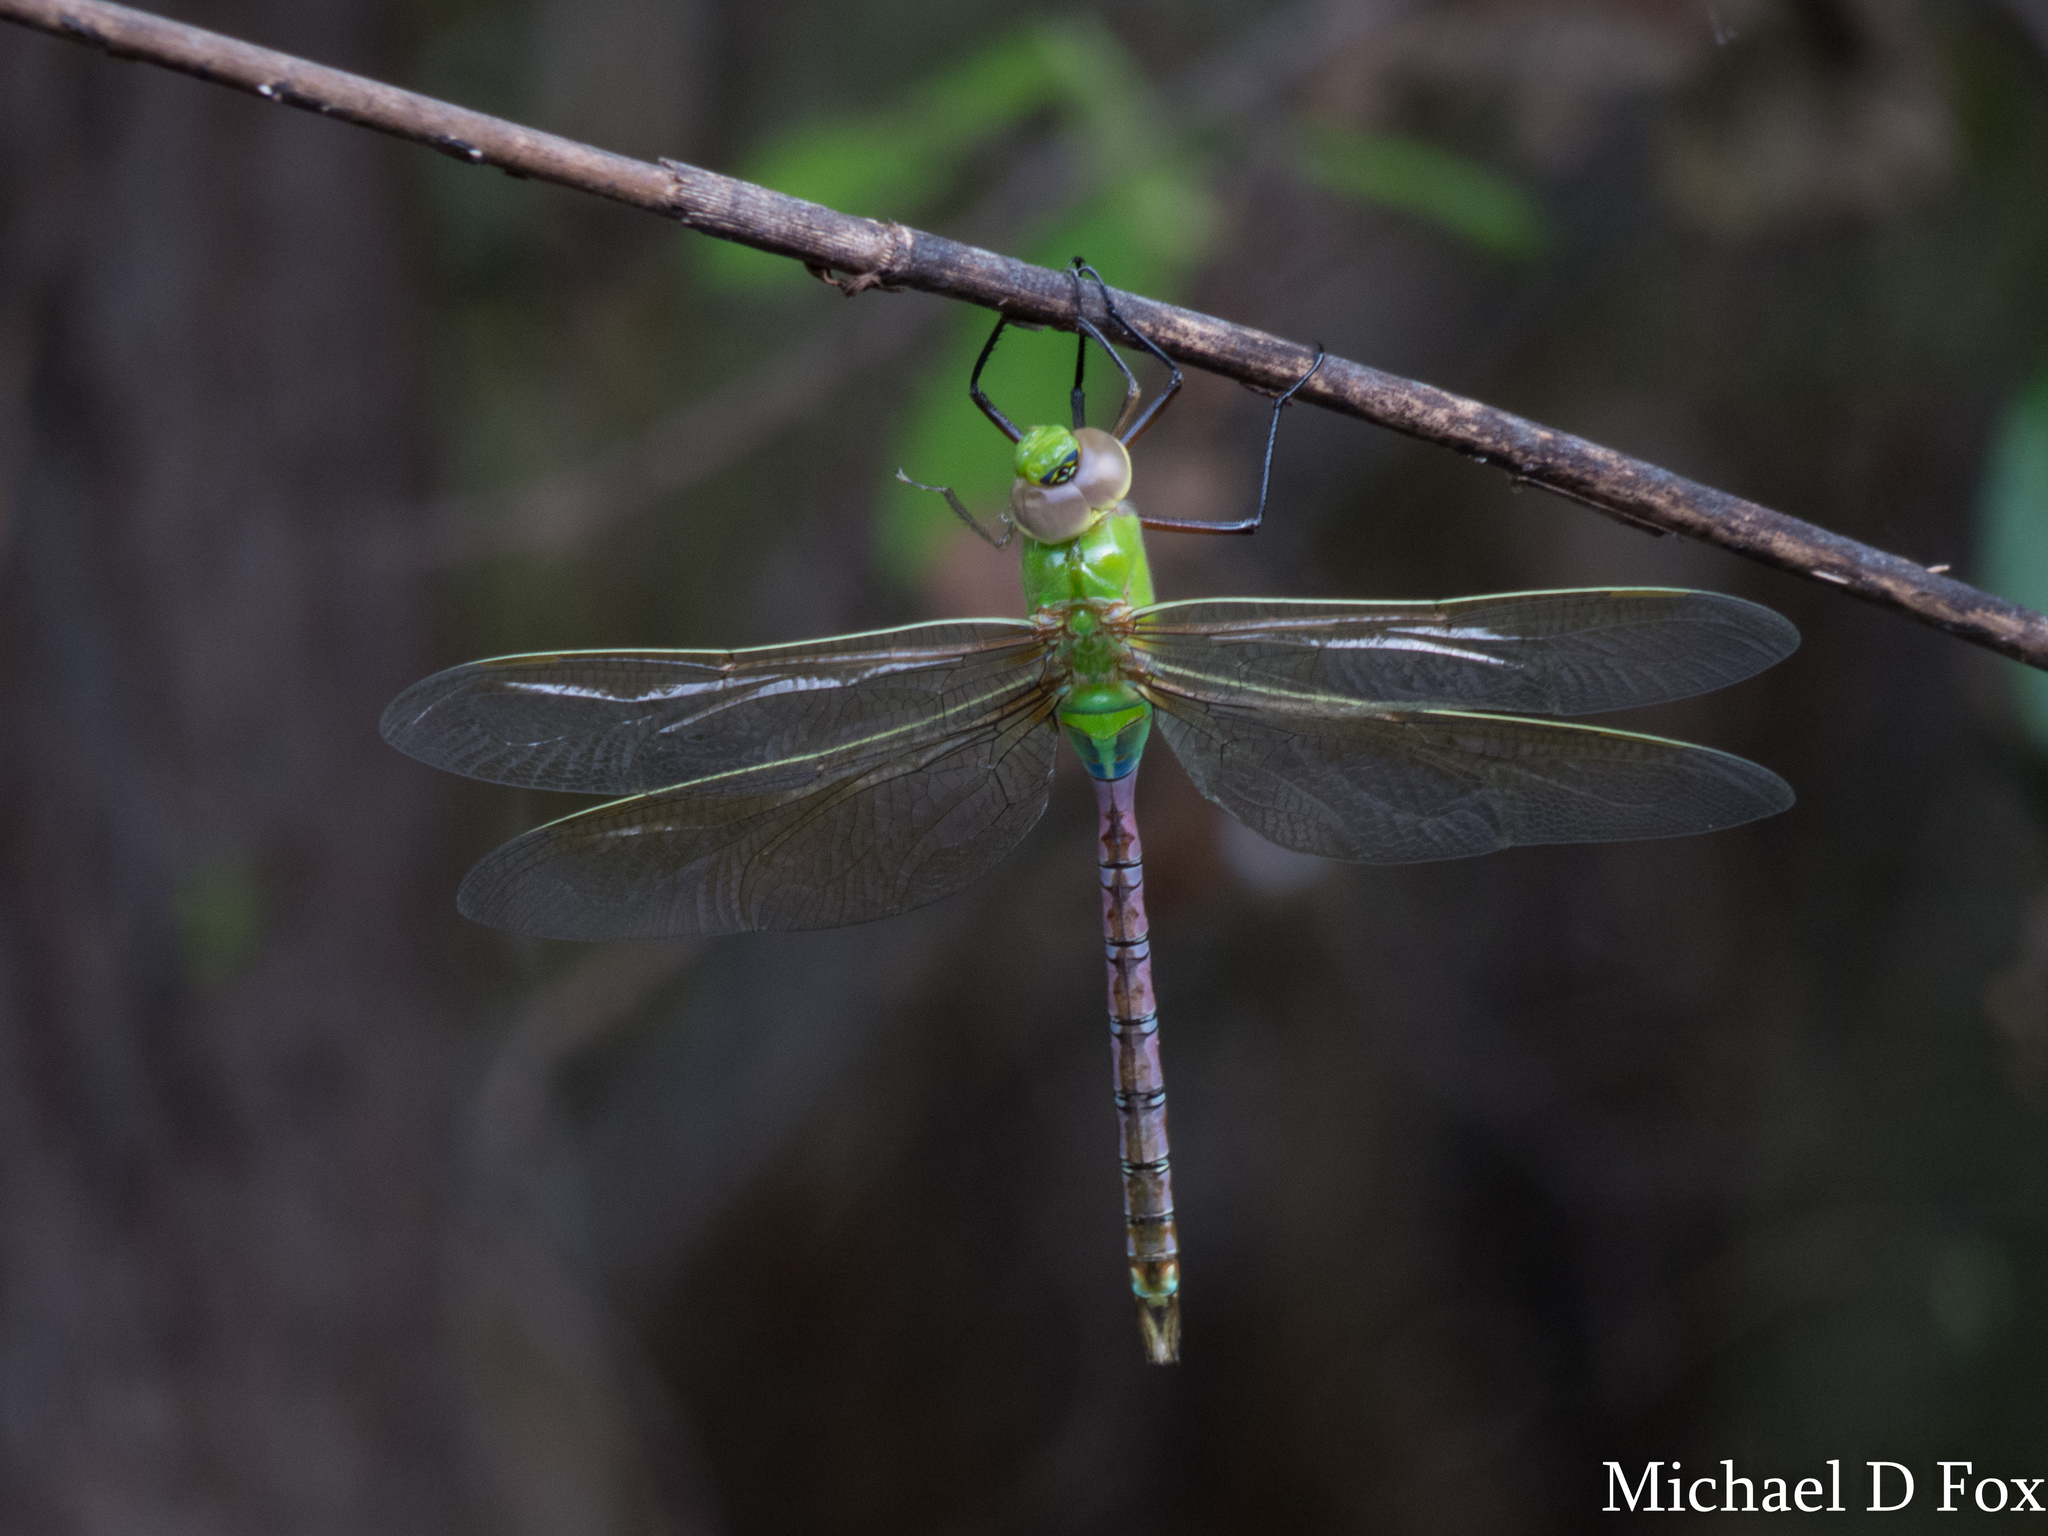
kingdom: Animalia
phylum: Arthropoda
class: Insecta
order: Odonata
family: Aeshnidae
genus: Anax
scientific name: Anax junius
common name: Common green darner
